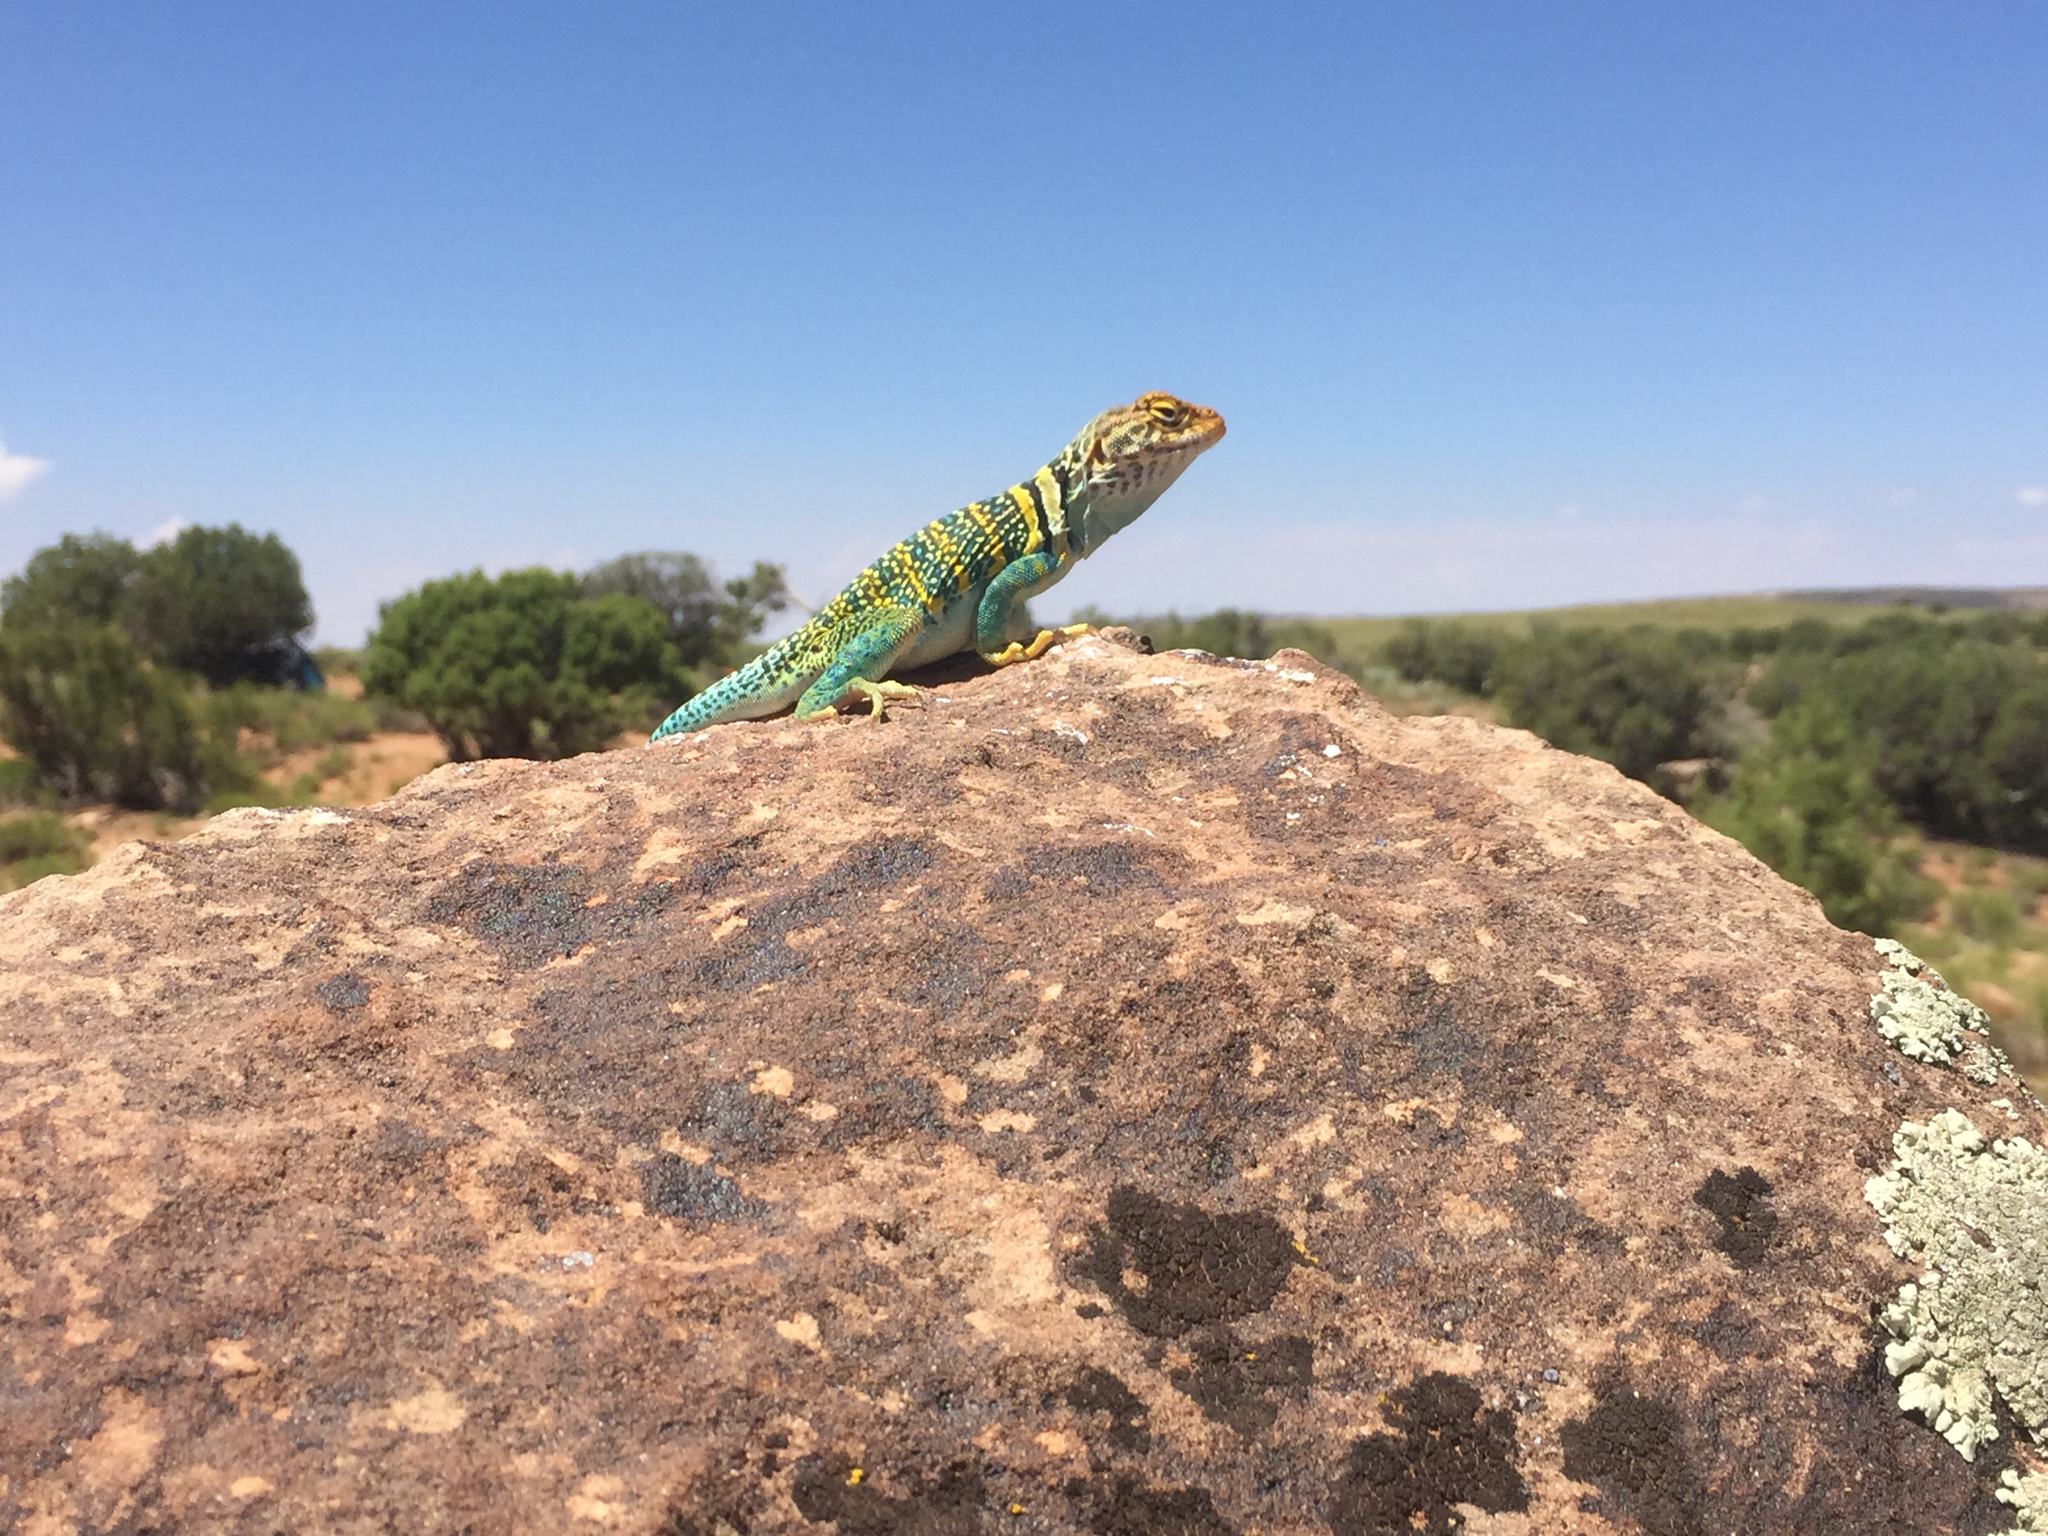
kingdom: Animalia
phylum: Chordata
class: Squamata
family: Crotaphytidae
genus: Crotaphytus
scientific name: Crotaphytus collaris
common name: Collared lizard
